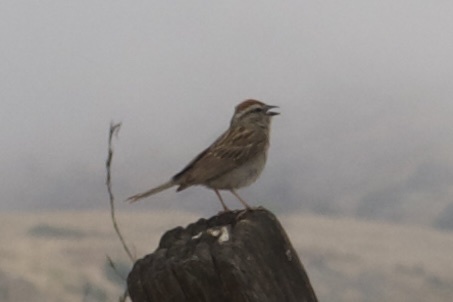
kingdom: Animalia
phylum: Chordata
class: Aves
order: Passeriformes
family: Passerellidae
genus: Spizella
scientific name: Spizella passerina
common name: Chipping sparrow
